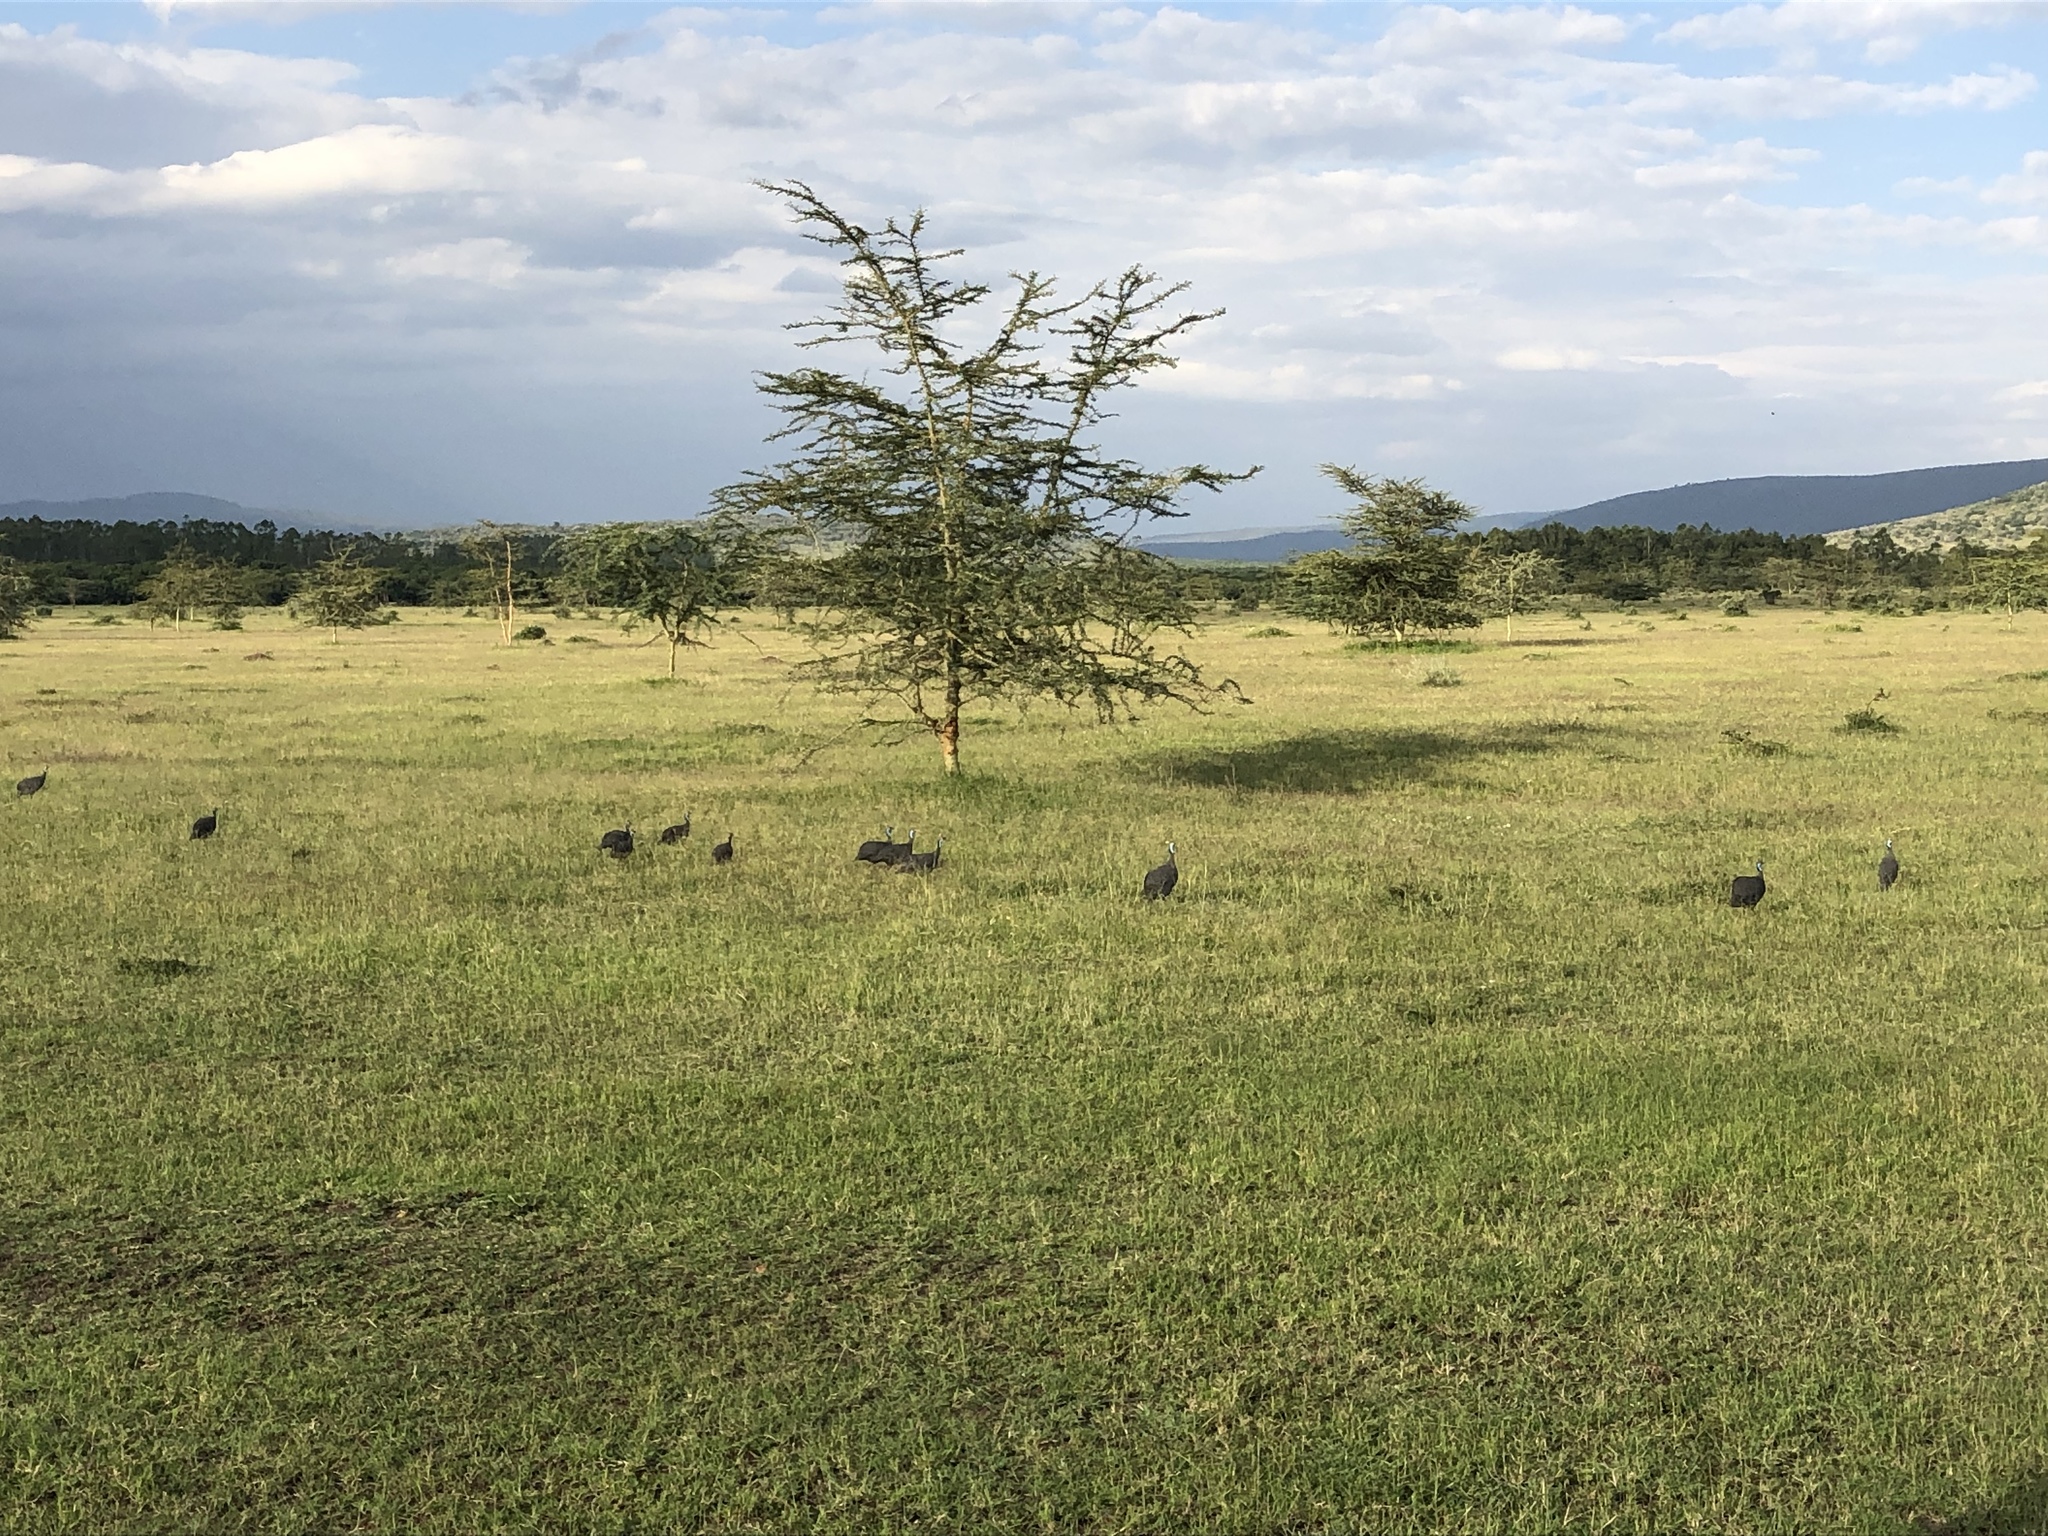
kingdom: Animalia
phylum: Chordata
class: Aves
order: Galliformes
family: Numididae
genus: Numida
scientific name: Numida meleagris
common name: Helmeted guineafowl
